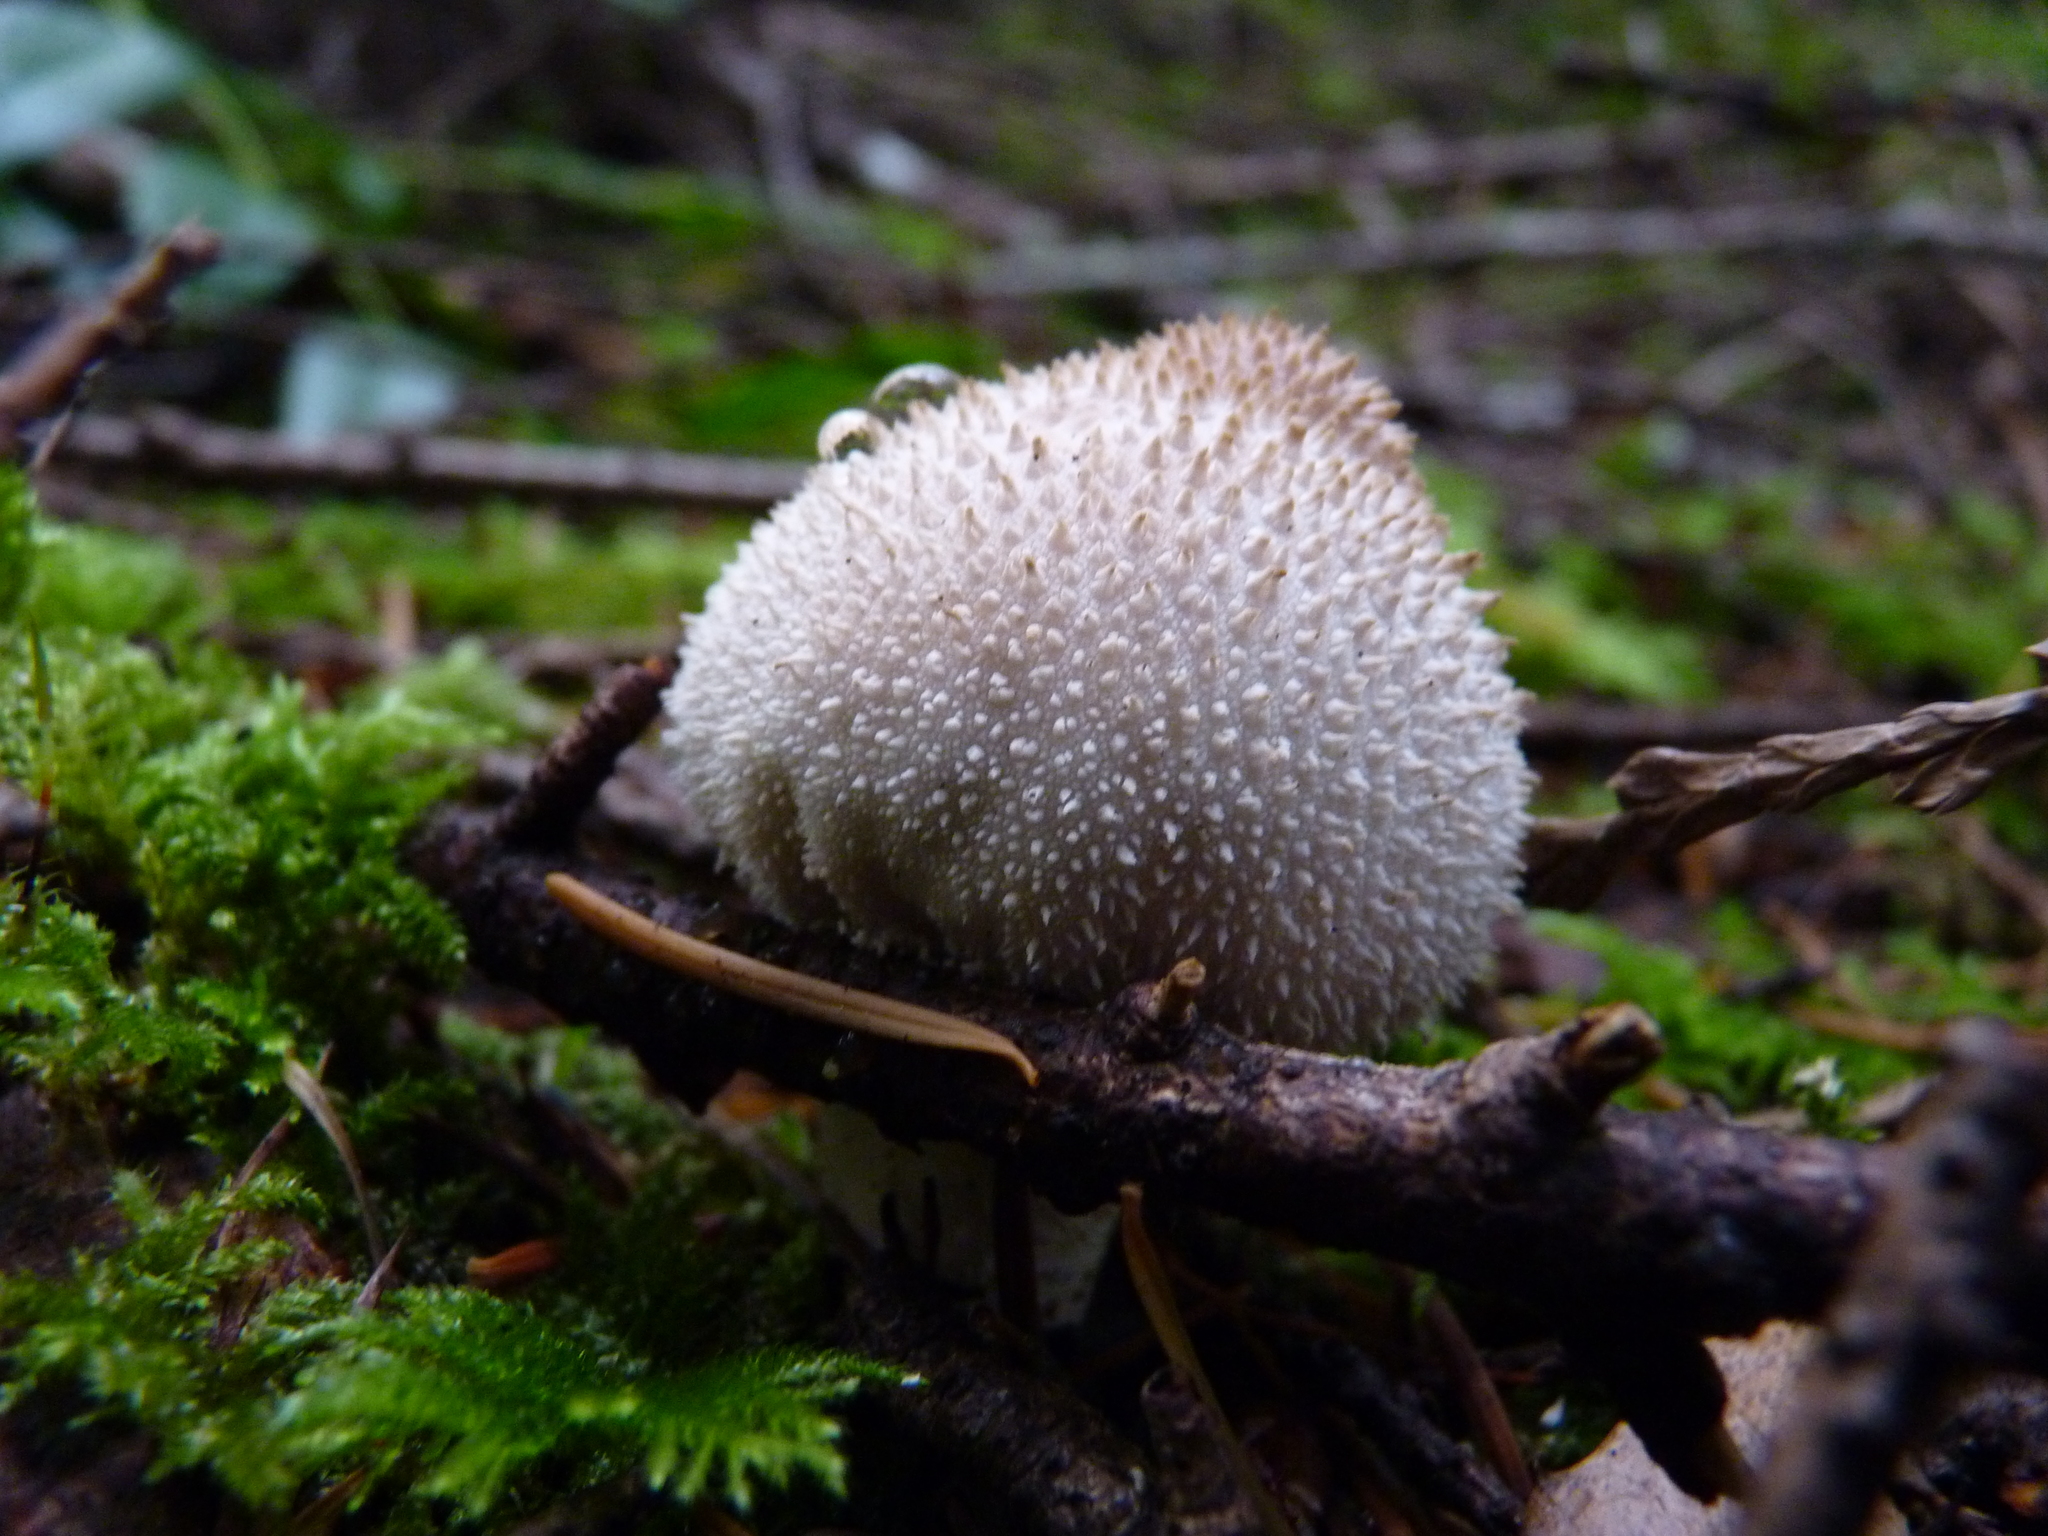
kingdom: Fungi
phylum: Basidiomycota
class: Agaricomycetes
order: Agaricales
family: Lycoperdaceae
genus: Lycoperdon
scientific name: Lycoperdon perlatum
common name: Common puffball
